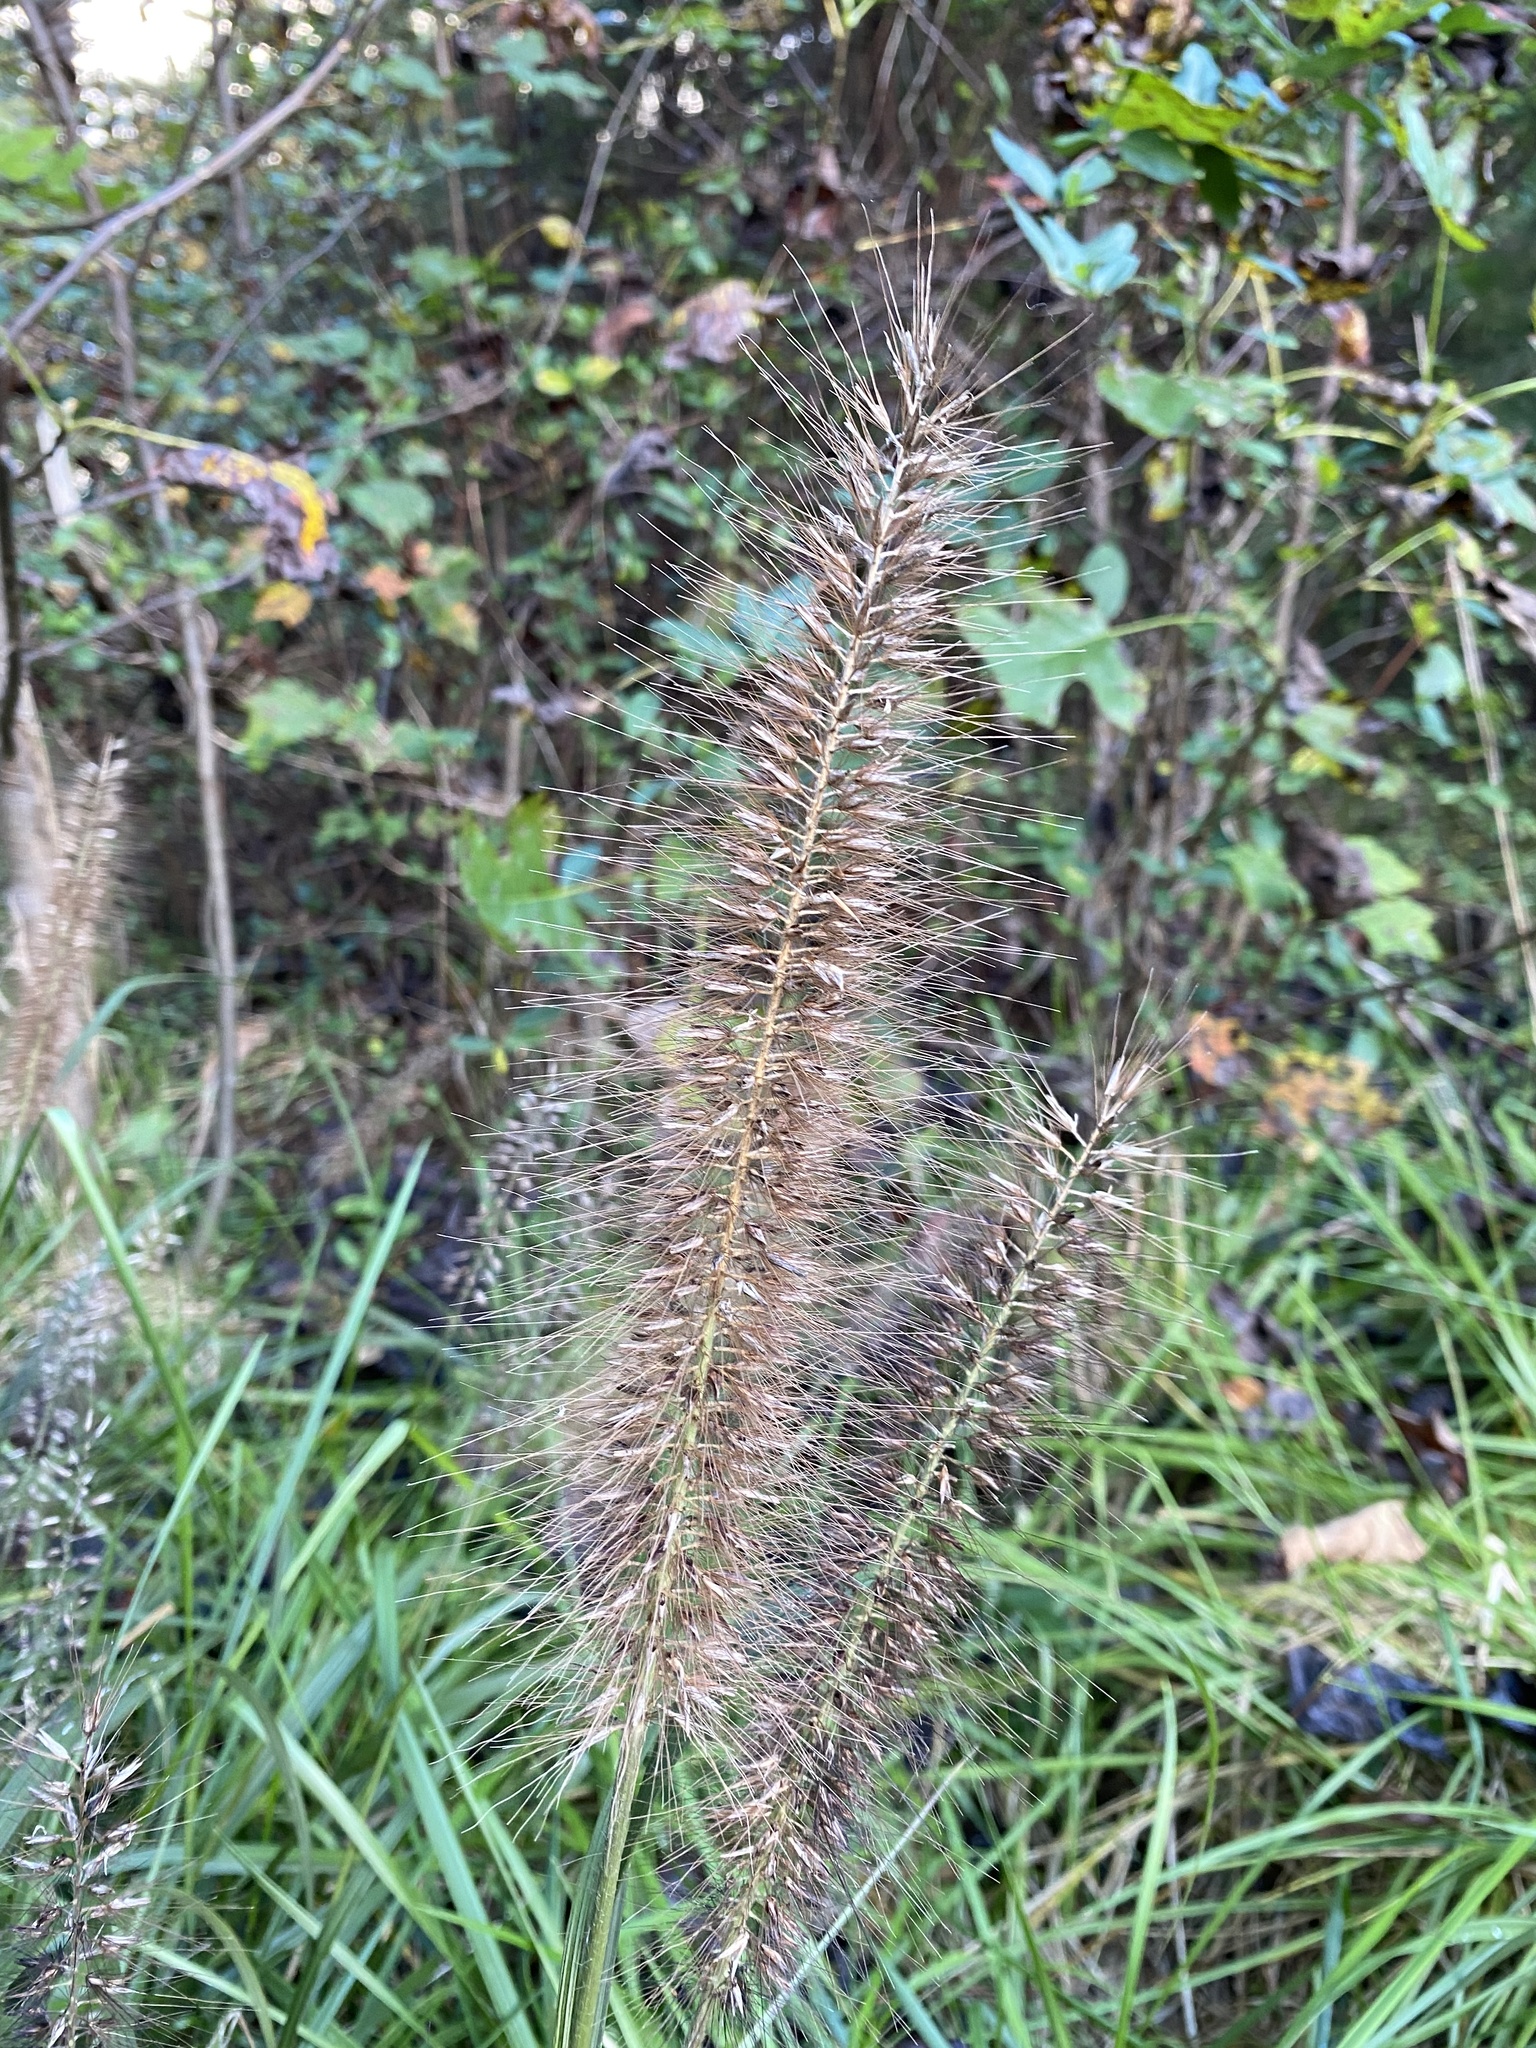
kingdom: Plantae
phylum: Tracheophyta
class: Liliopsida
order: Poales
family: Poaceae
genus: Cenchrus
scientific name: Cenchrus alopecuroides
